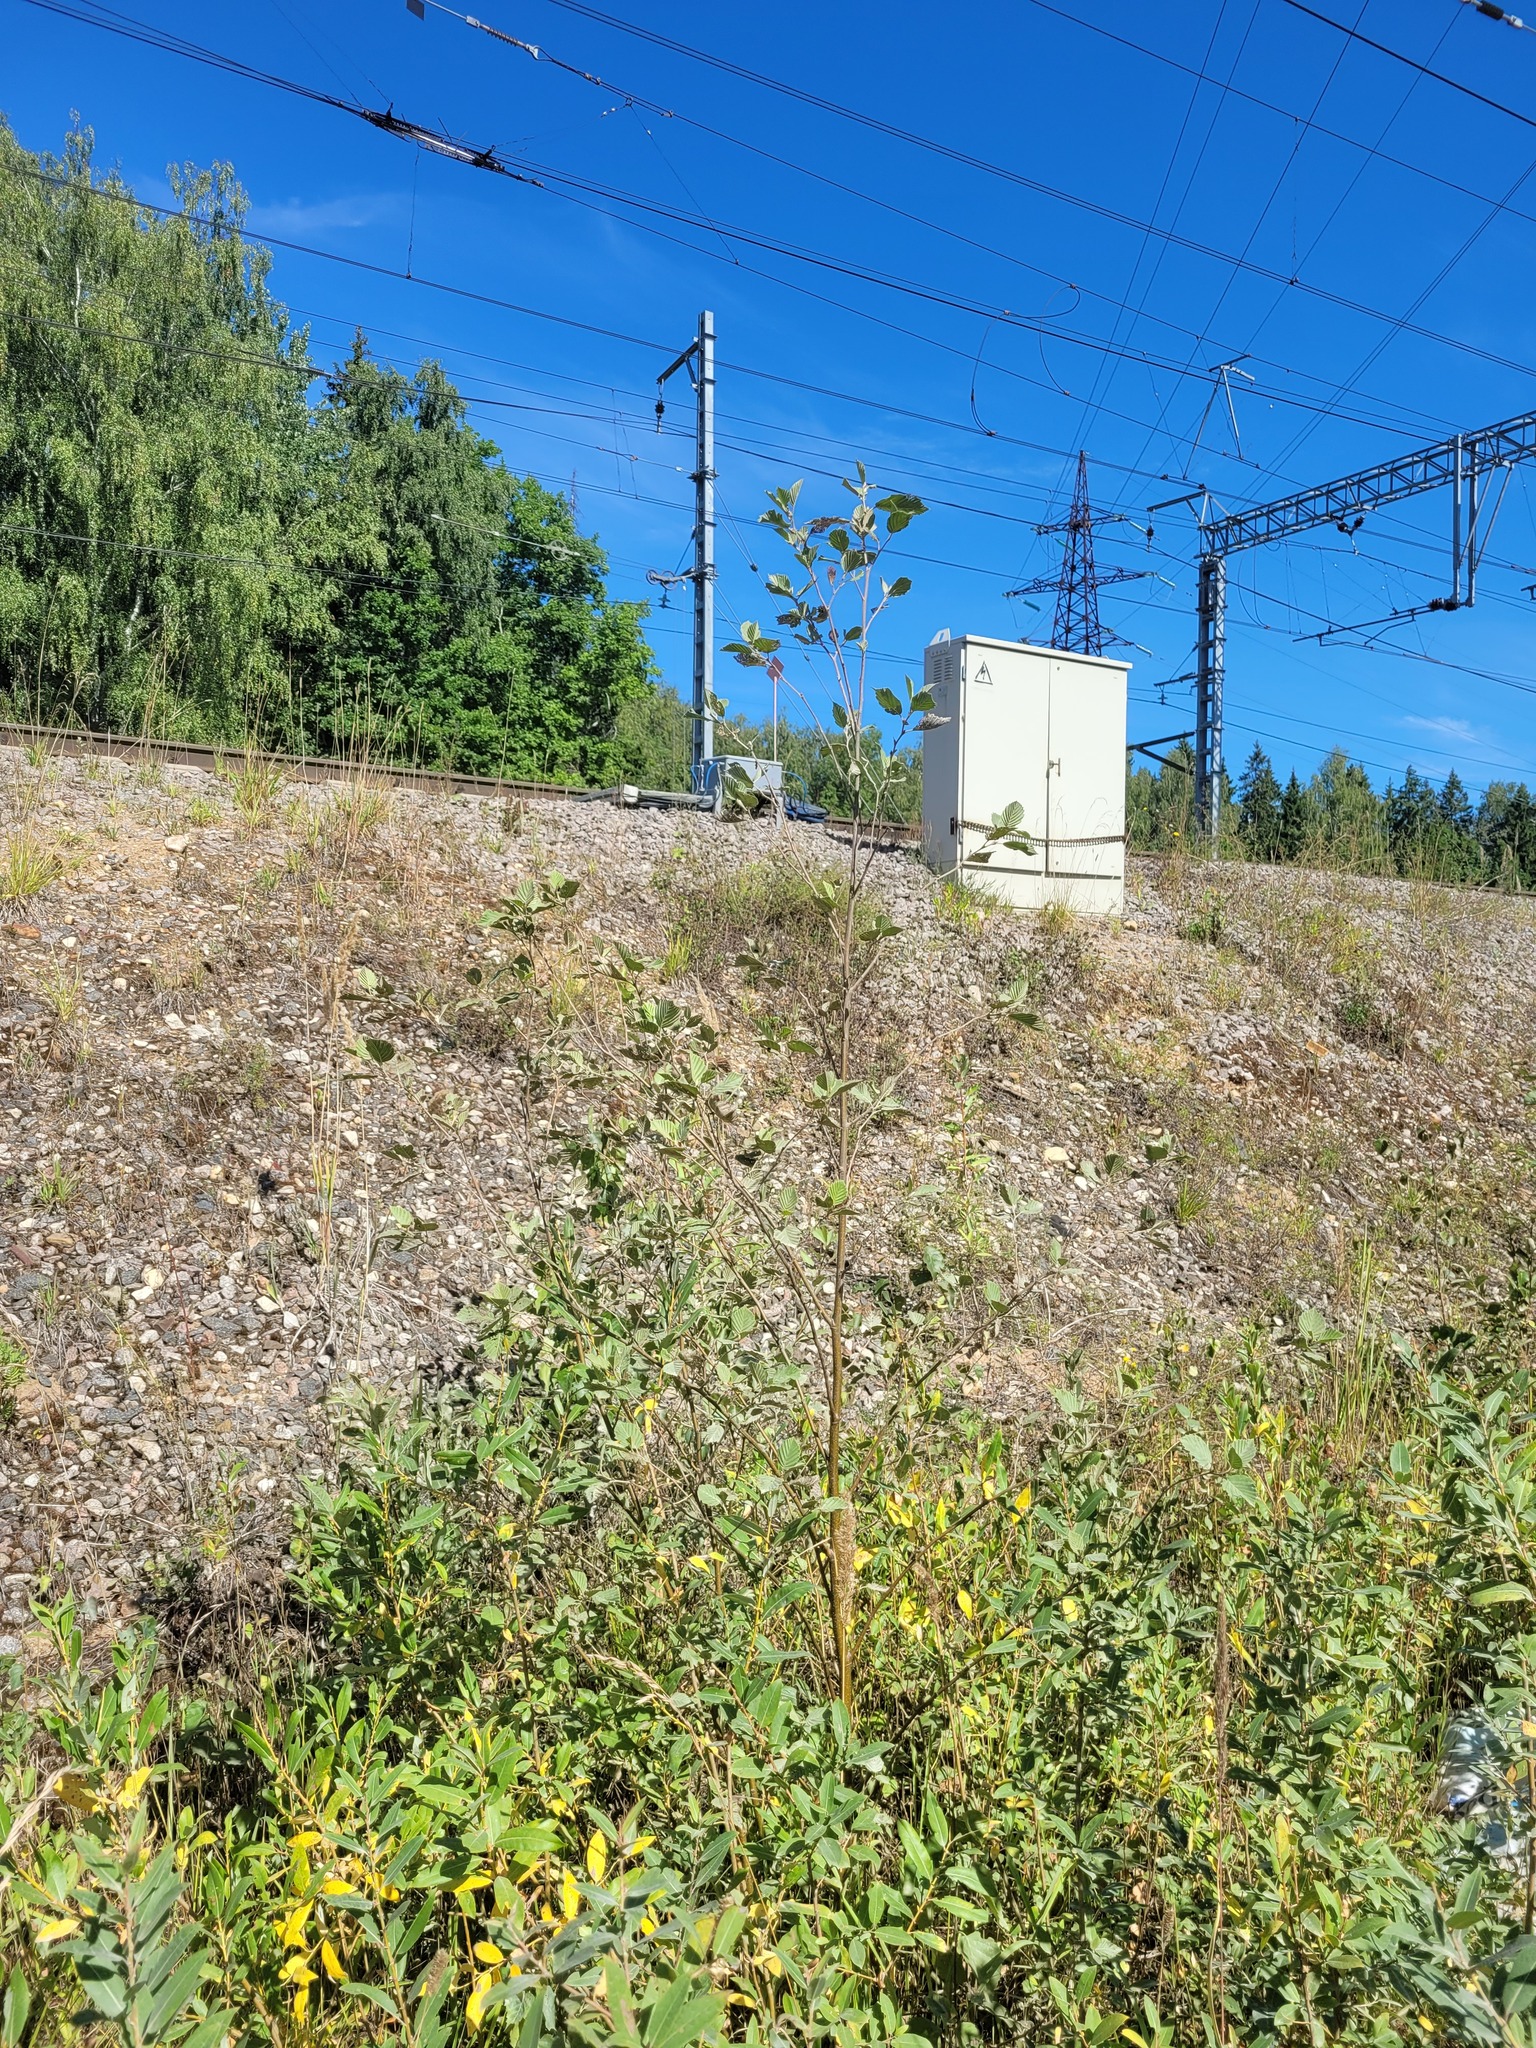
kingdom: Plantae
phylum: Tracheophyta
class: Magnoliopsida
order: Fagales
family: Betulaceae
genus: Alnus
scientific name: Alnus incana
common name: Grey alder
